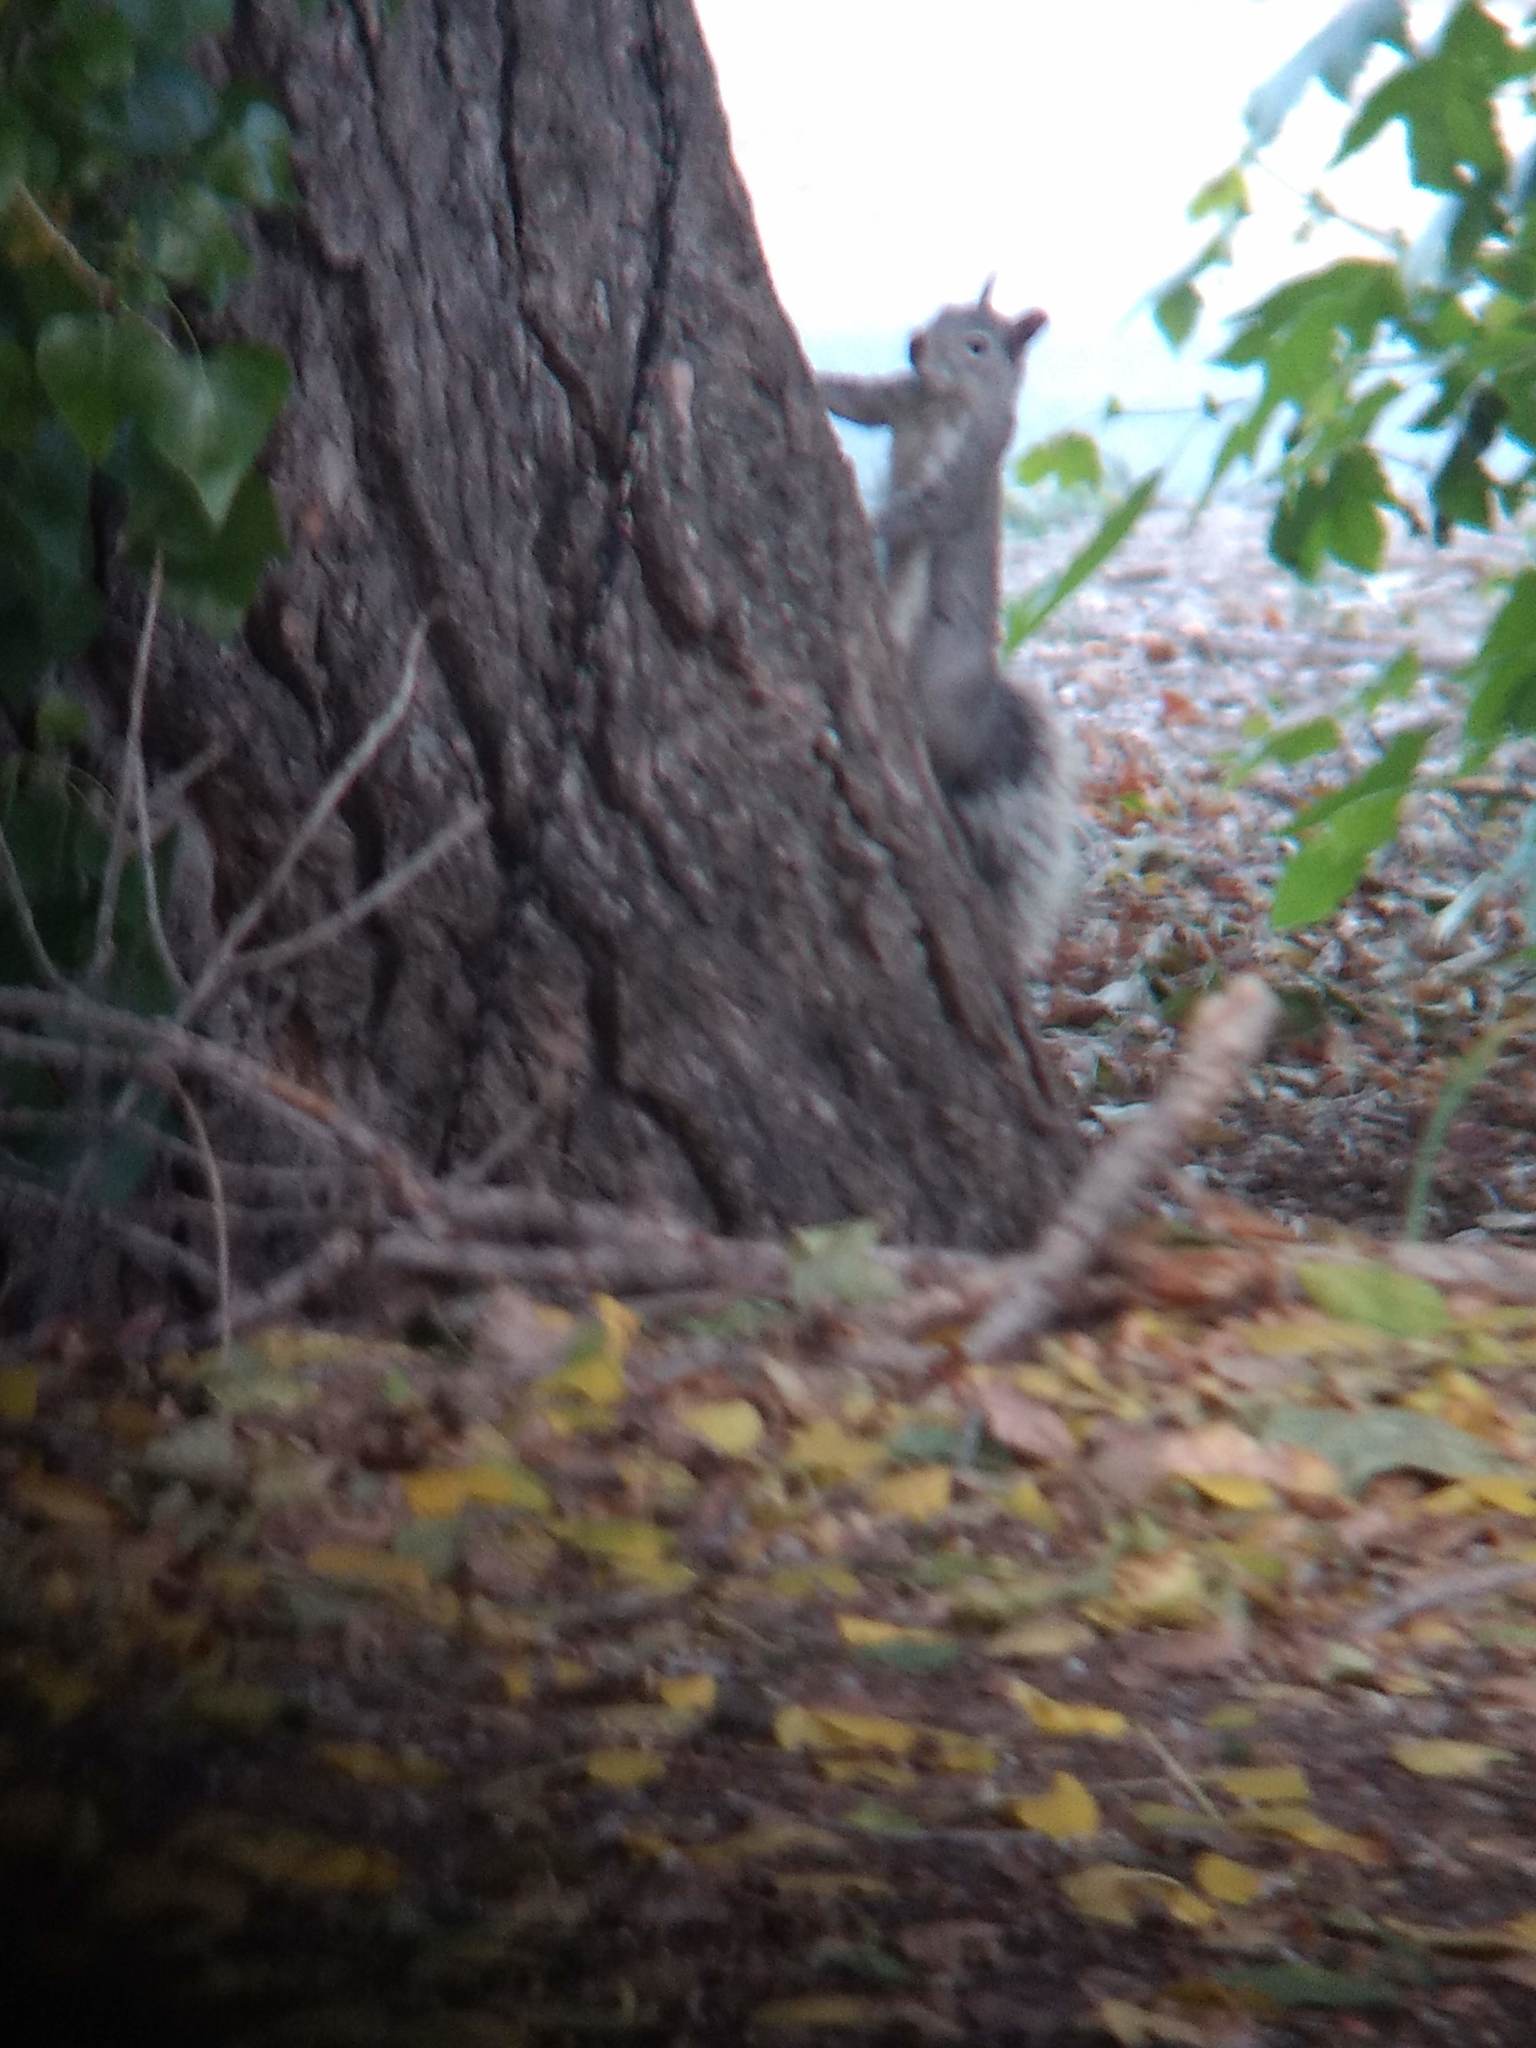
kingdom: Animalia
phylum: Chordata
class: Mammalia
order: Rodentia
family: Sciuridae
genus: Sciurus
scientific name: Sciurus griseus
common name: Western gray squirrel
